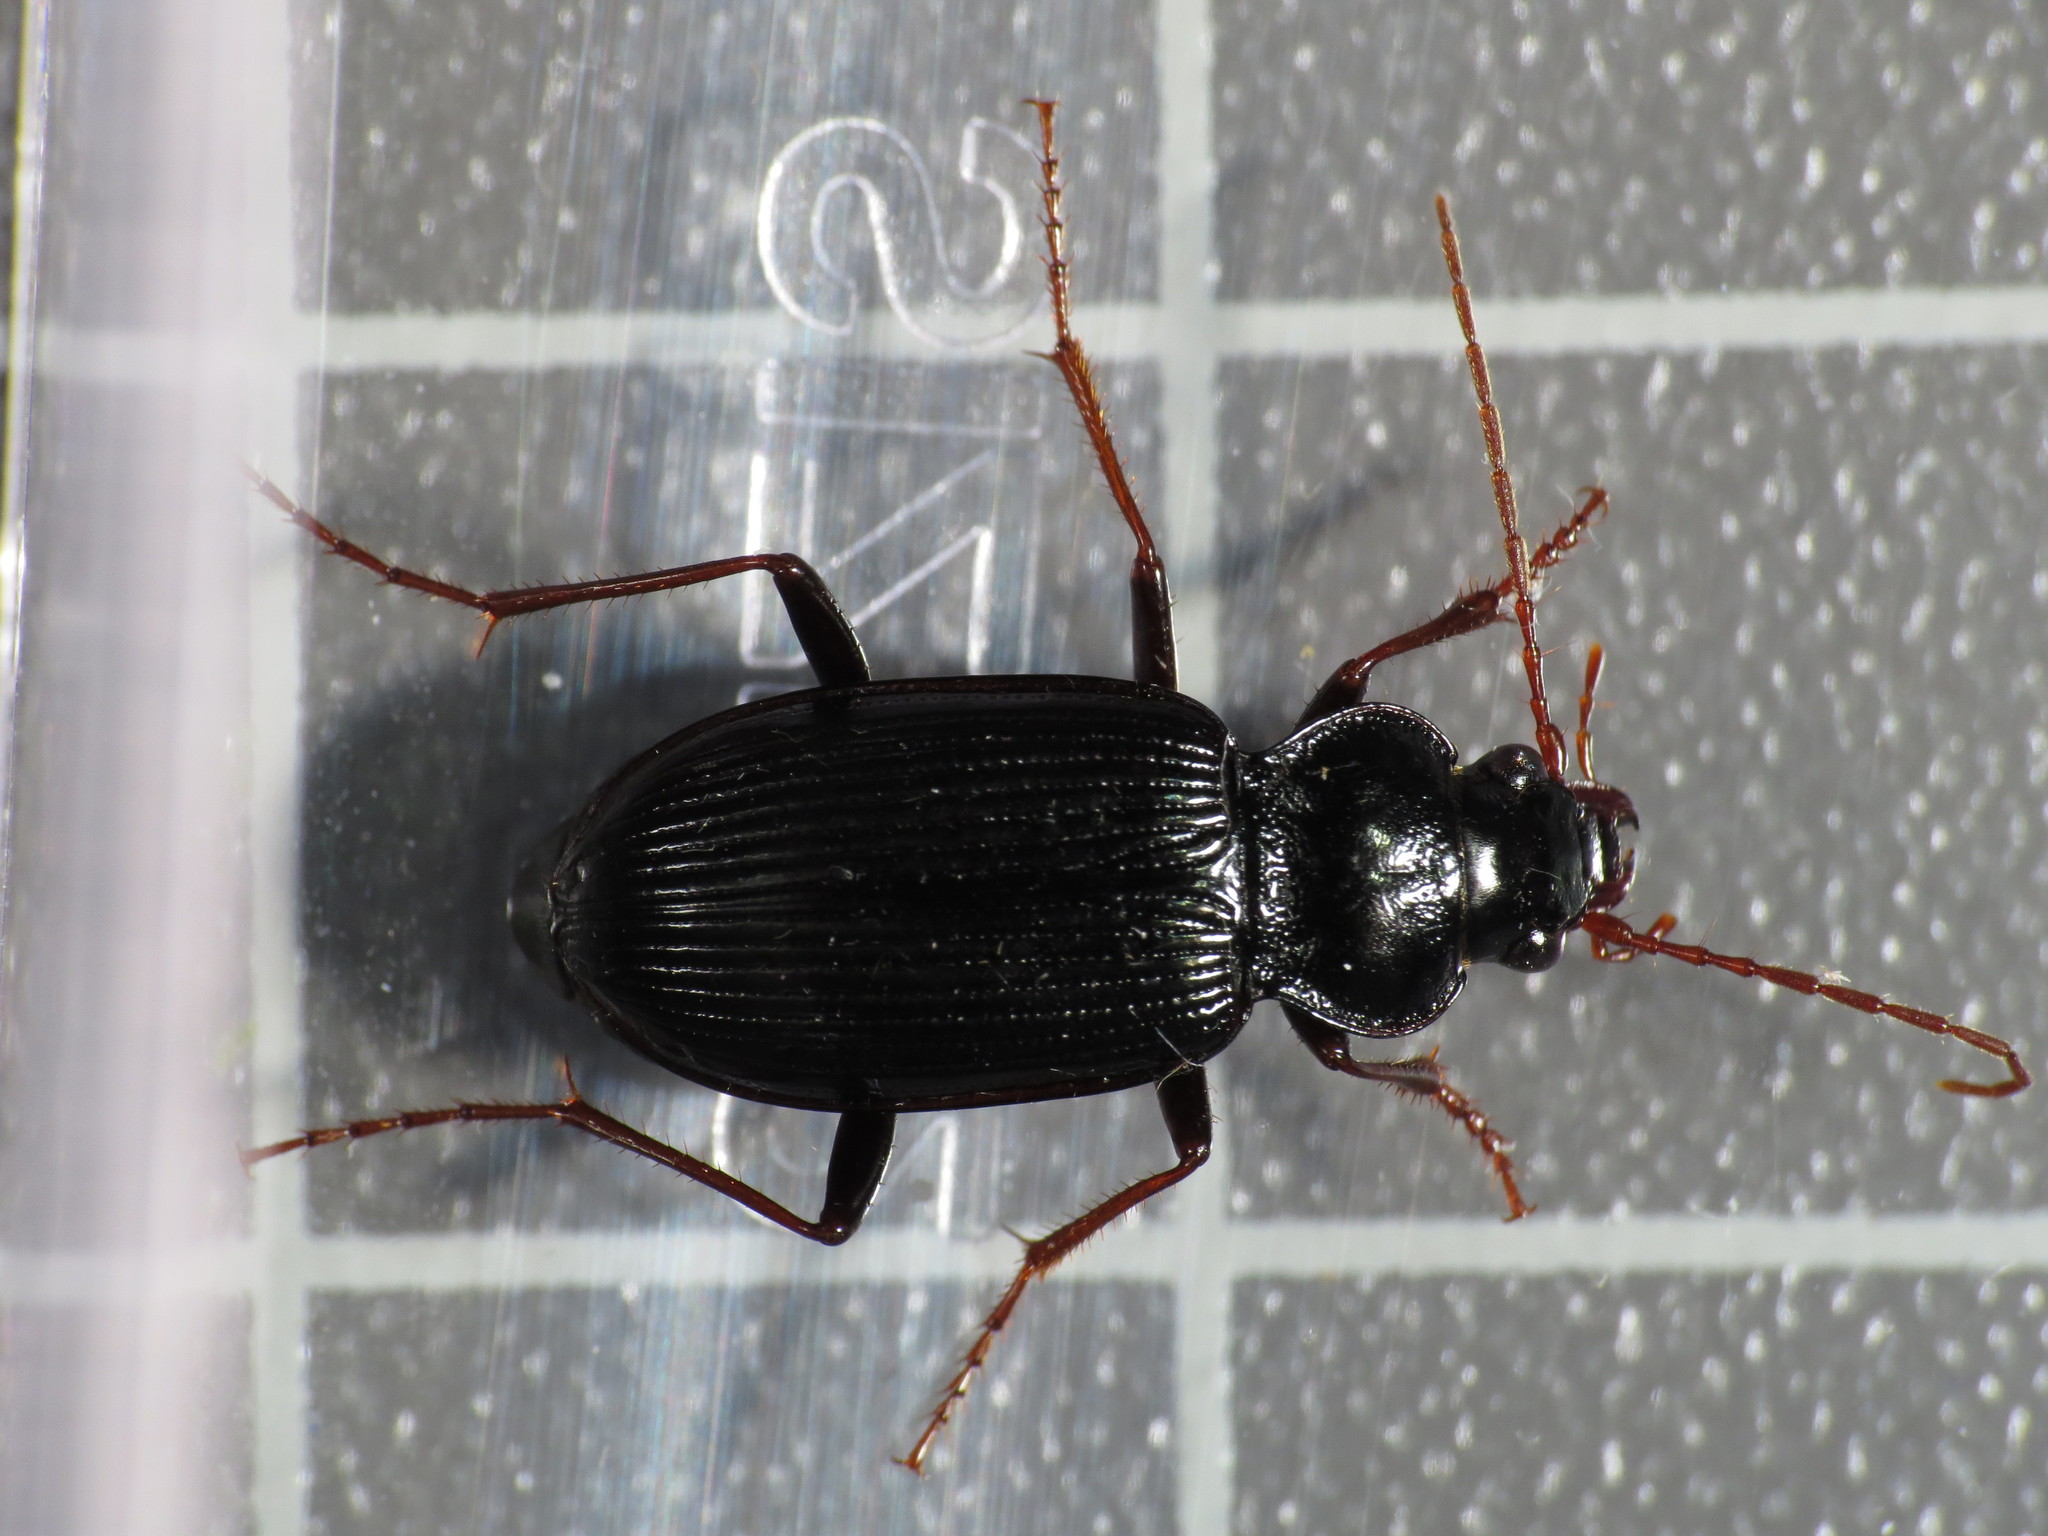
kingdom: Animalia
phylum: Arthropoda
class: Insecta
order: Coleoptera
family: Carabidae
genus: Nebria
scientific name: Nebria brevicollis
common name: Short-necked gazelle beetle
